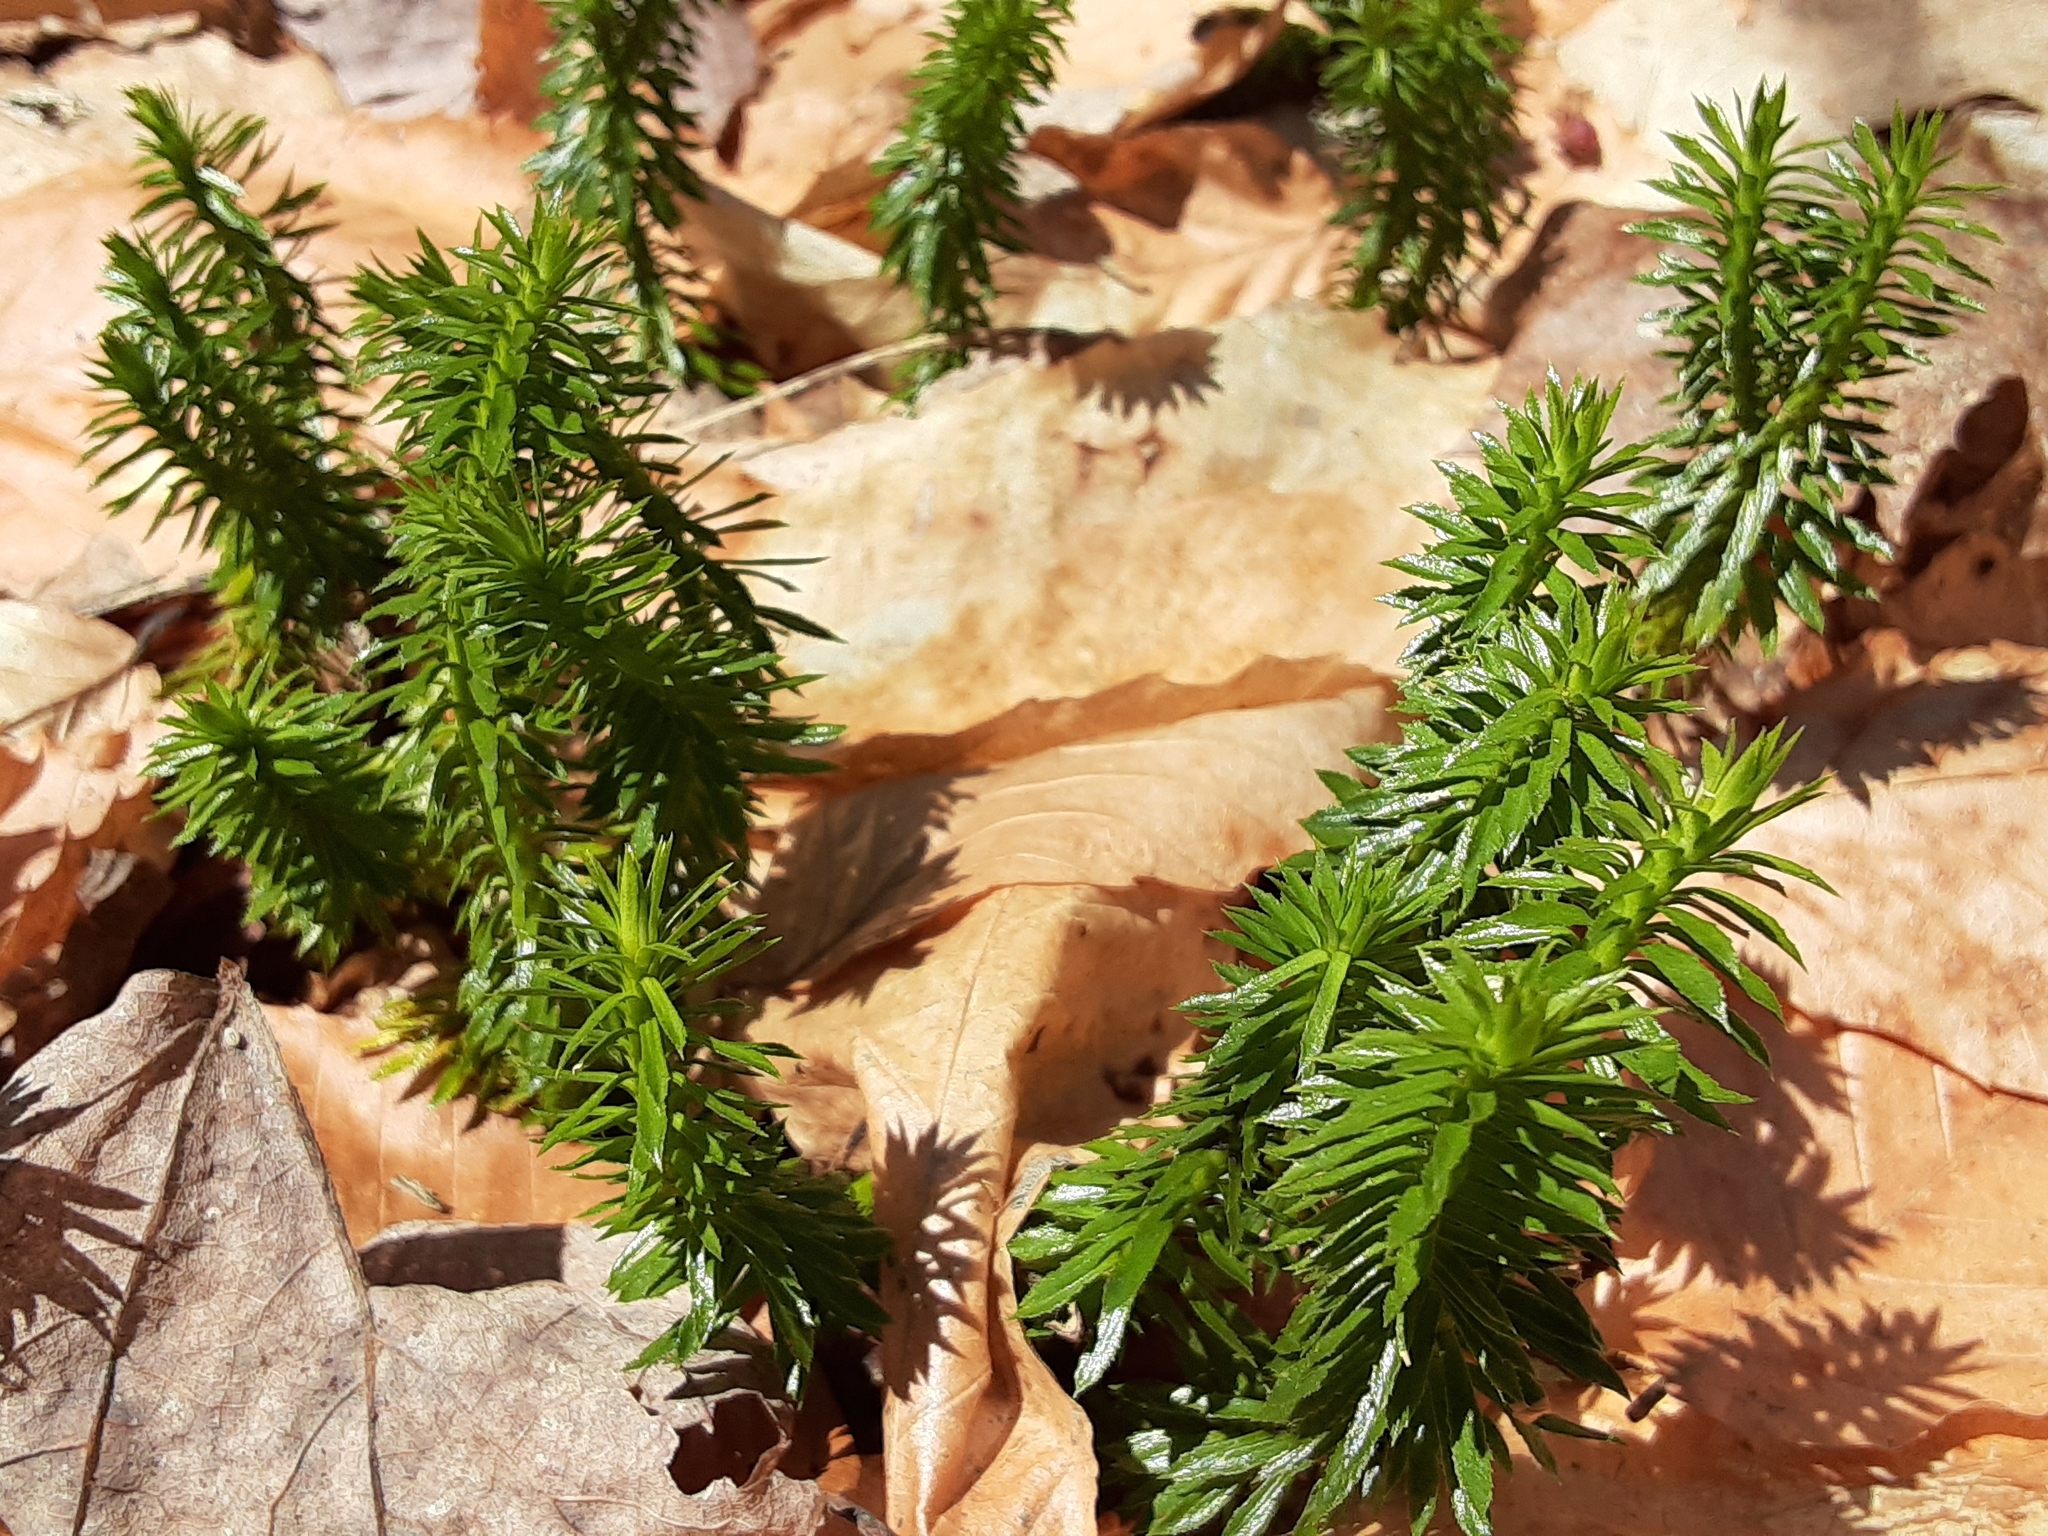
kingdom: Plantae
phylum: Tracheophyta
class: Lycopodiopsida
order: Lycopodiales
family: Lycopodiaceae
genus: Huperzia
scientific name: Huperzia lucidula
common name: Shining clubmoss
